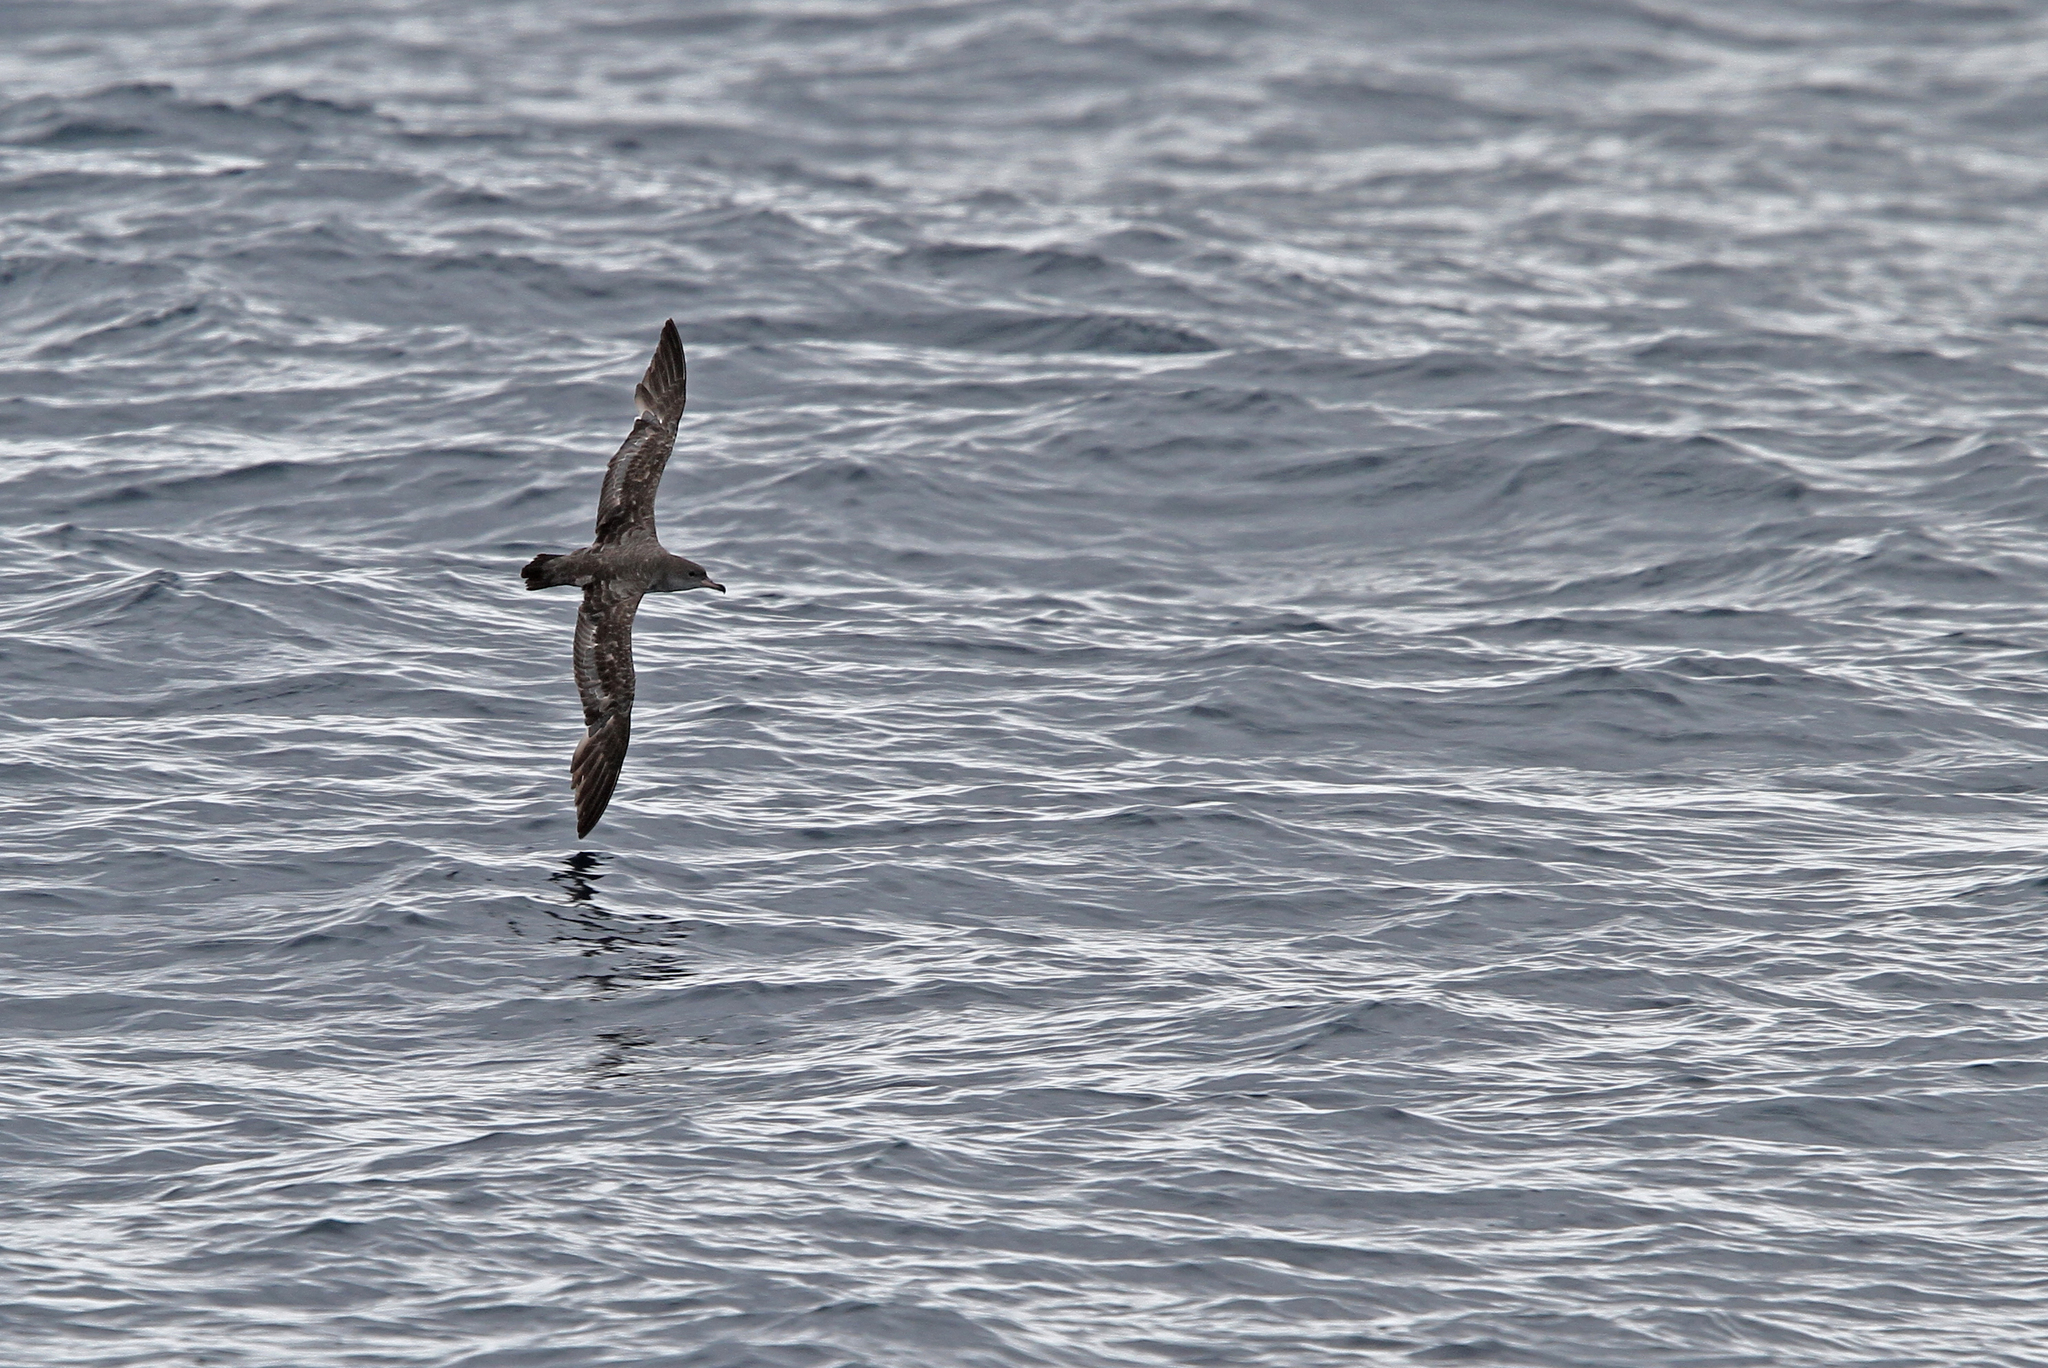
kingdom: Animalia
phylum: Chordata
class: Aves
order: Procellariiformes
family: Procellariidae
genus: Puffinus
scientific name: Puffinus creatopus
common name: Pink-footed shearwater
